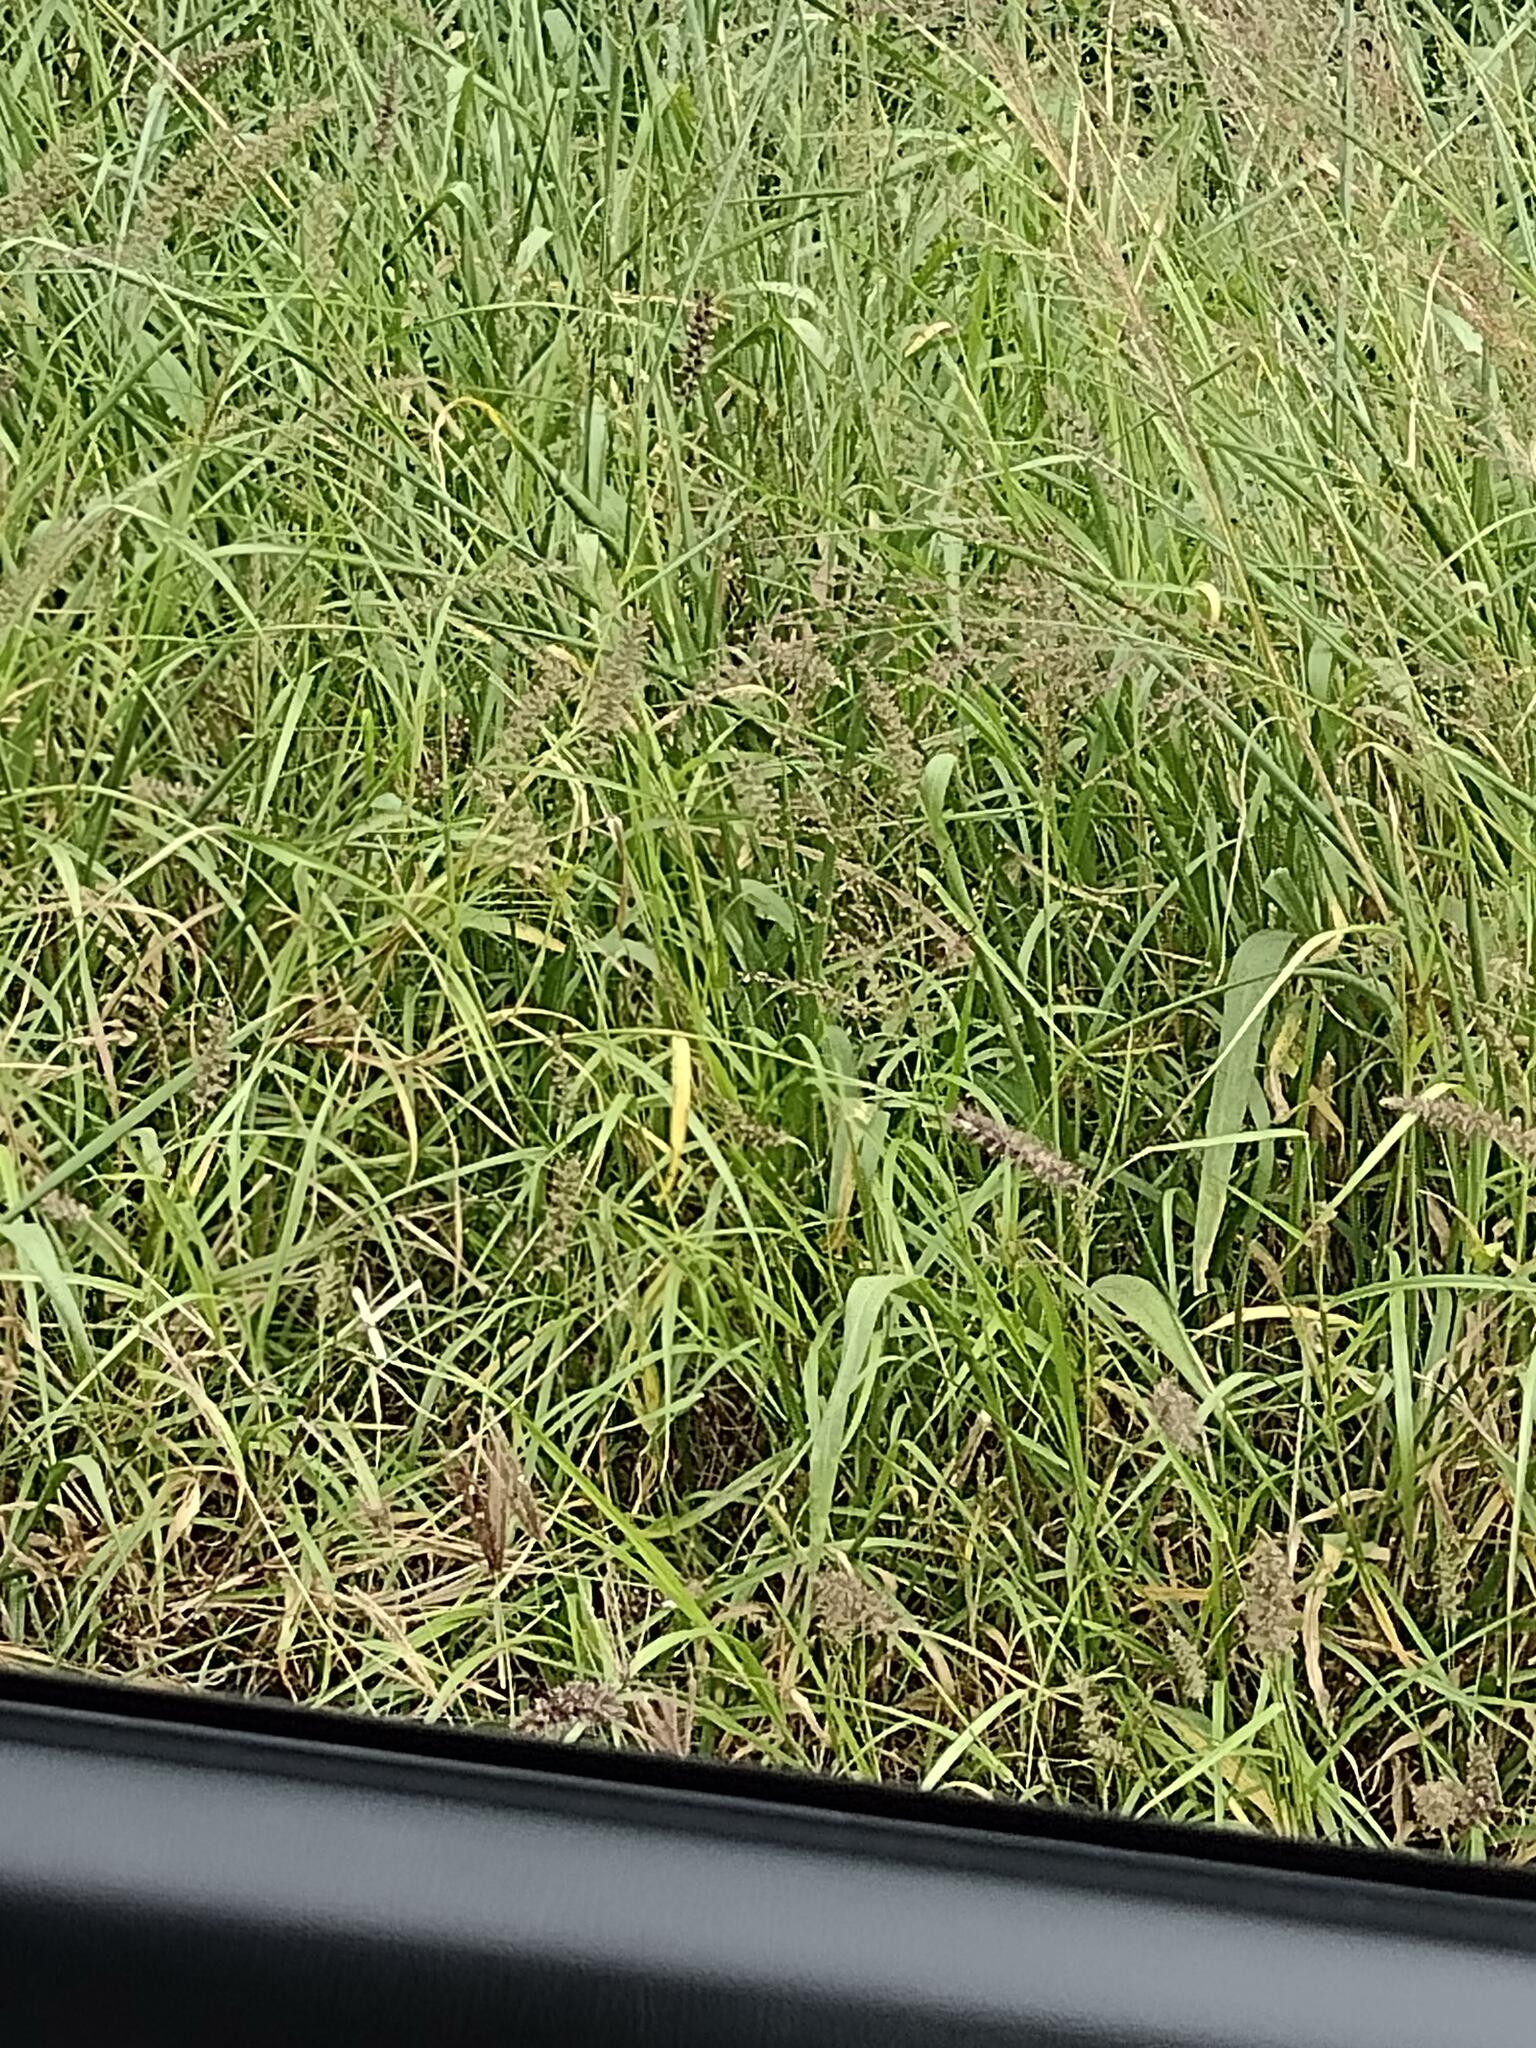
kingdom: Plantae
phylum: Tracheophyta
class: Liliopsida
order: Poales
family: Poaceae
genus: Cenchrus
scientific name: Cenchrus ciliaris
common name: Buffelgrass
